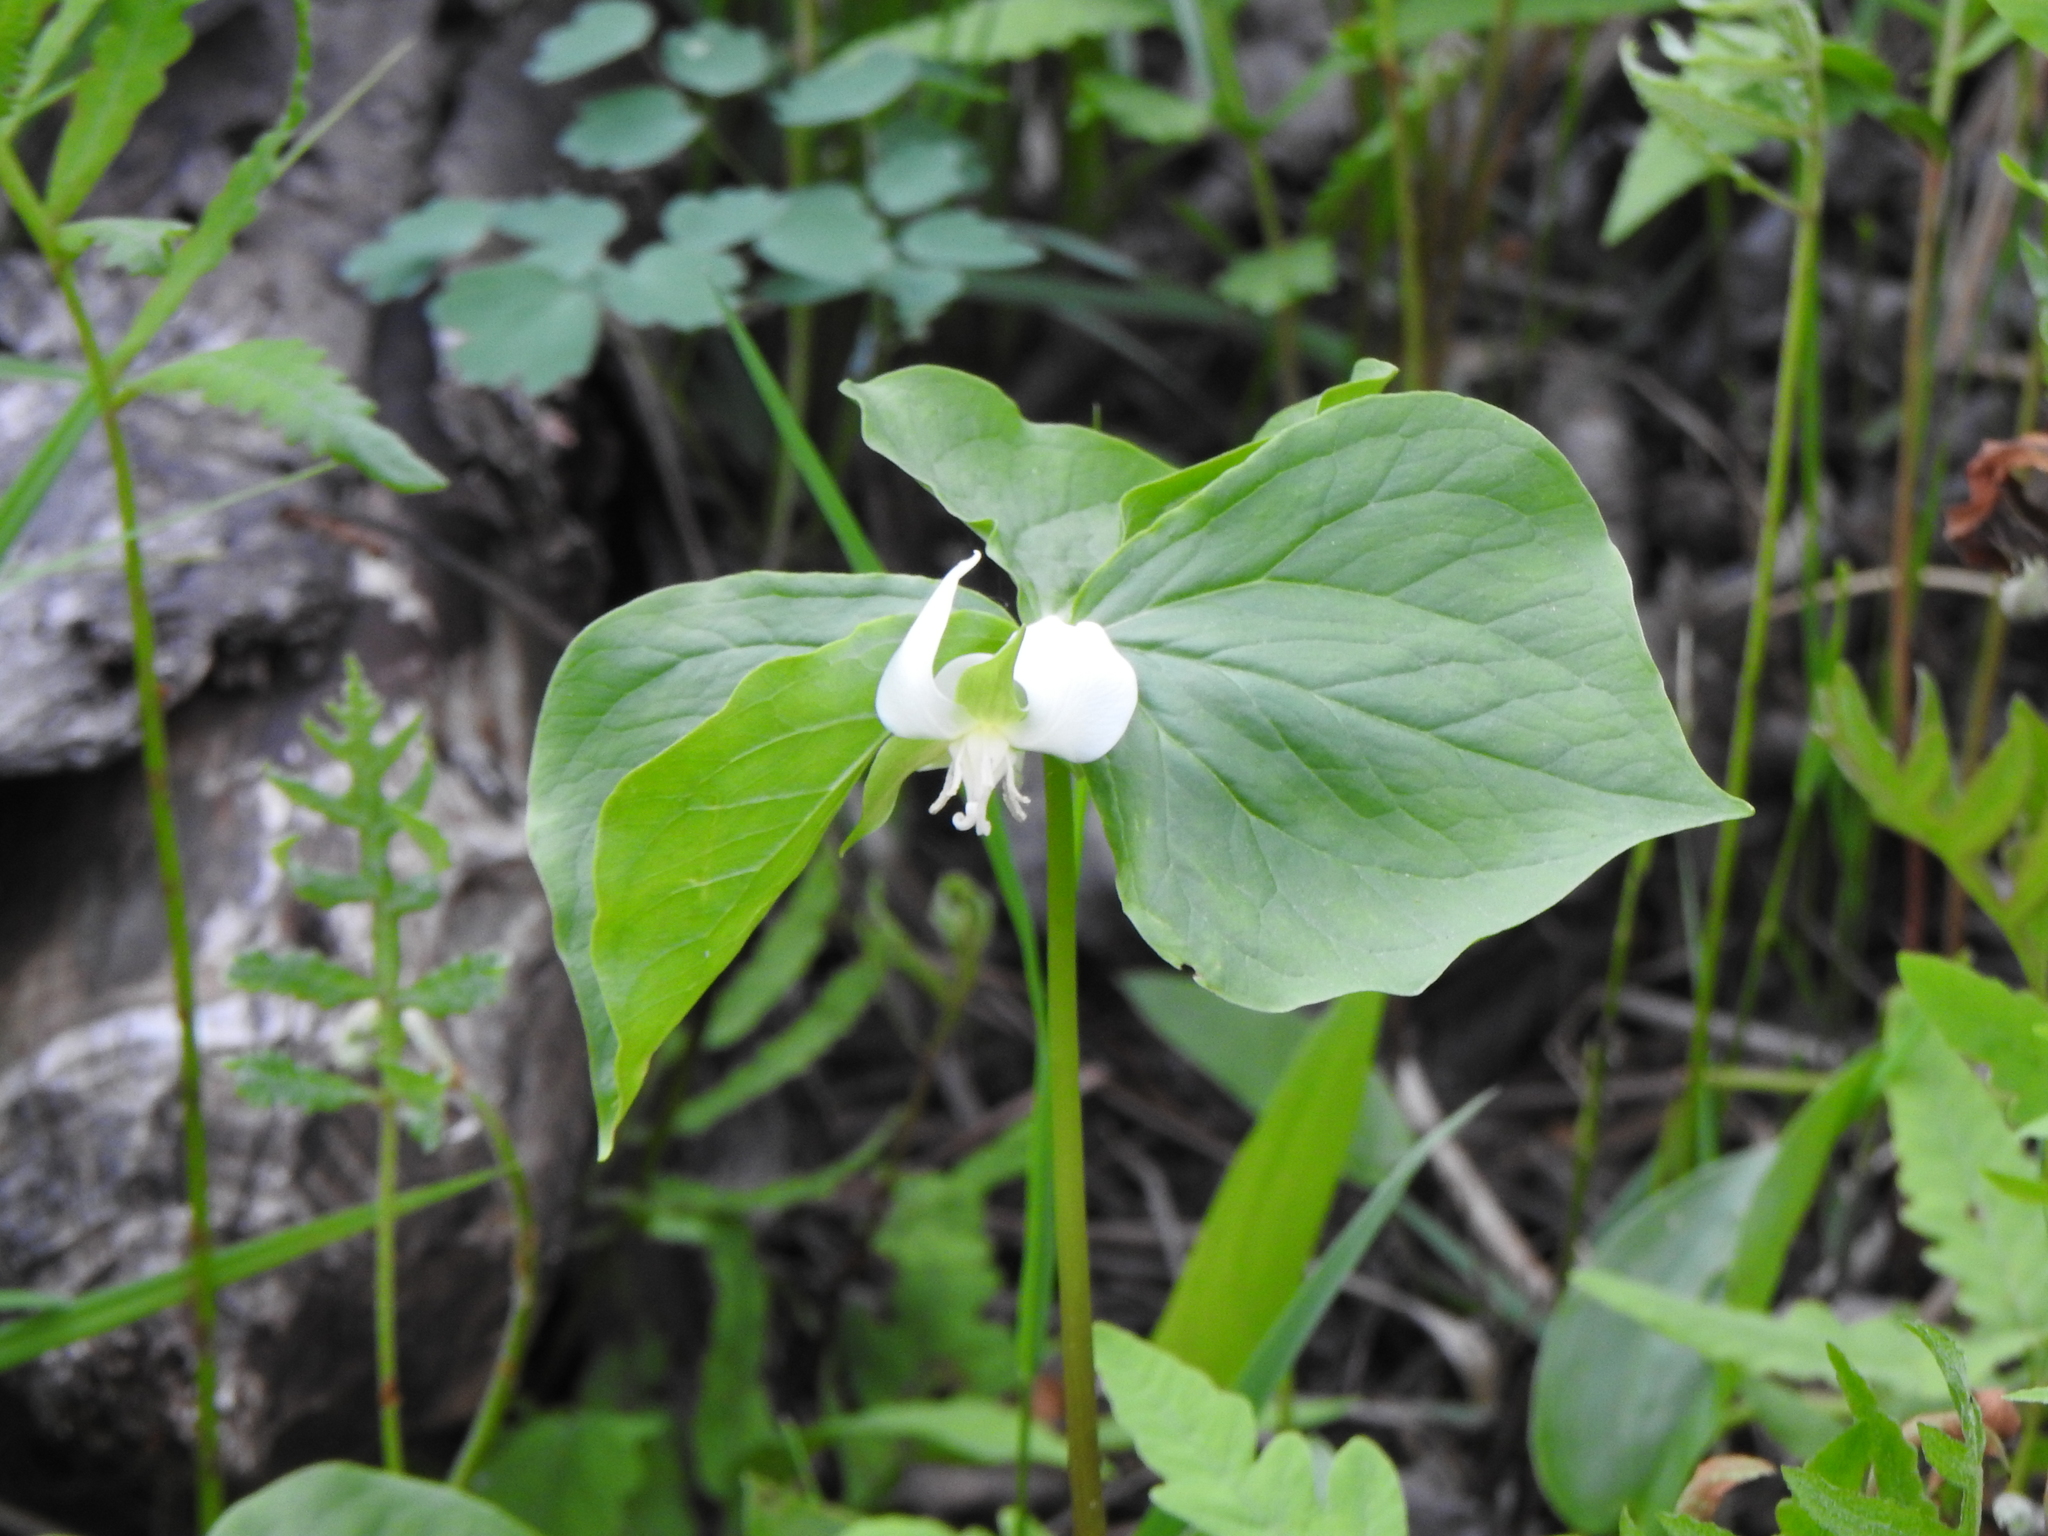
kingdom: Plantae
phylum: Tracheophyta
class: Liliopsida
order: Liliales
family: Melanthiaceae
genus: Trillium
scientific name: Trillium cernuum
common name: Nodding trillium
